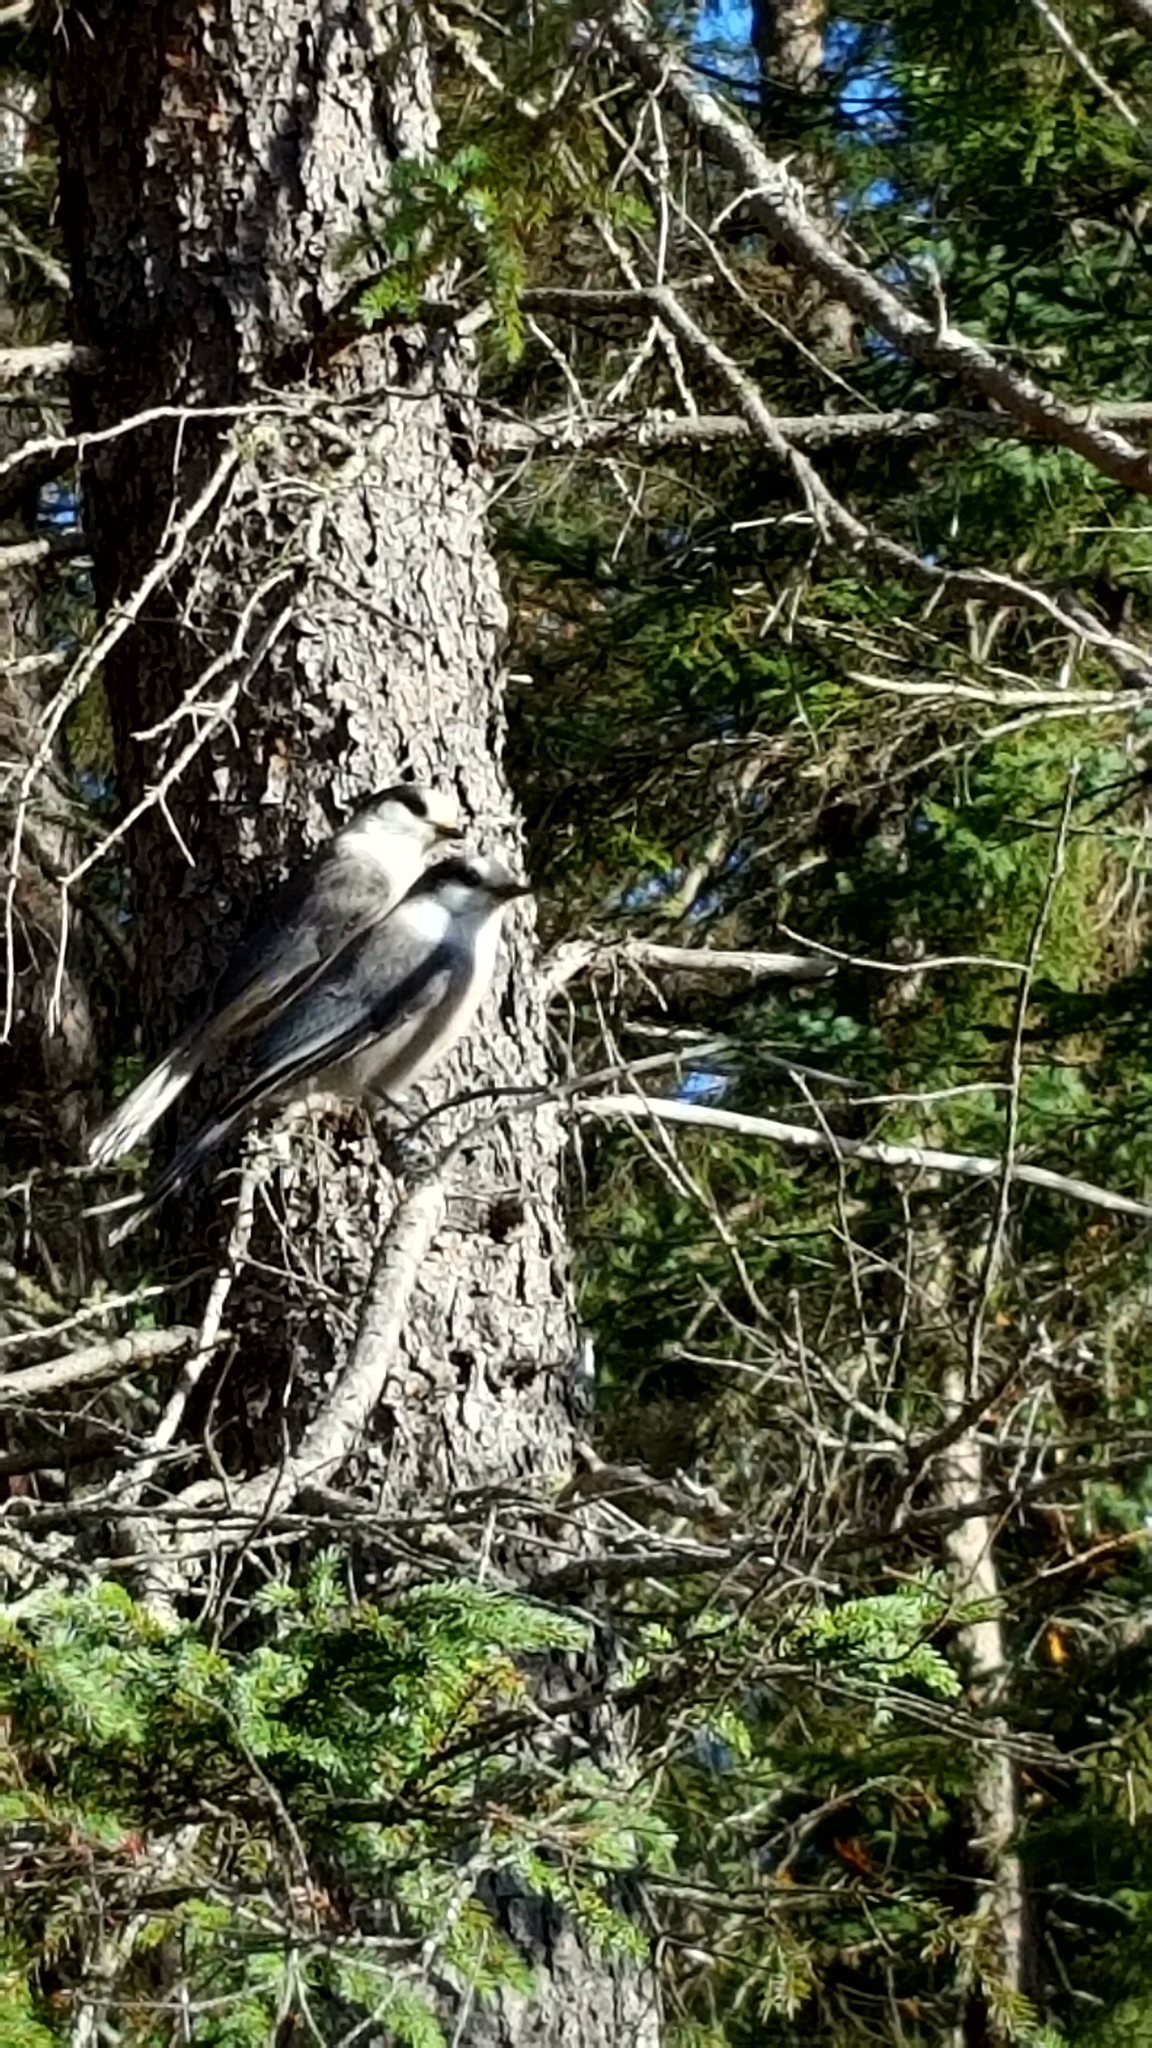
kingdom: Animalia
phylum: Chordata
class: Aves
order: Passeriformes
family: Corvidae
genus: Perisoreus
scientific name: Perisoreus canadensis
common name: Gray jay
